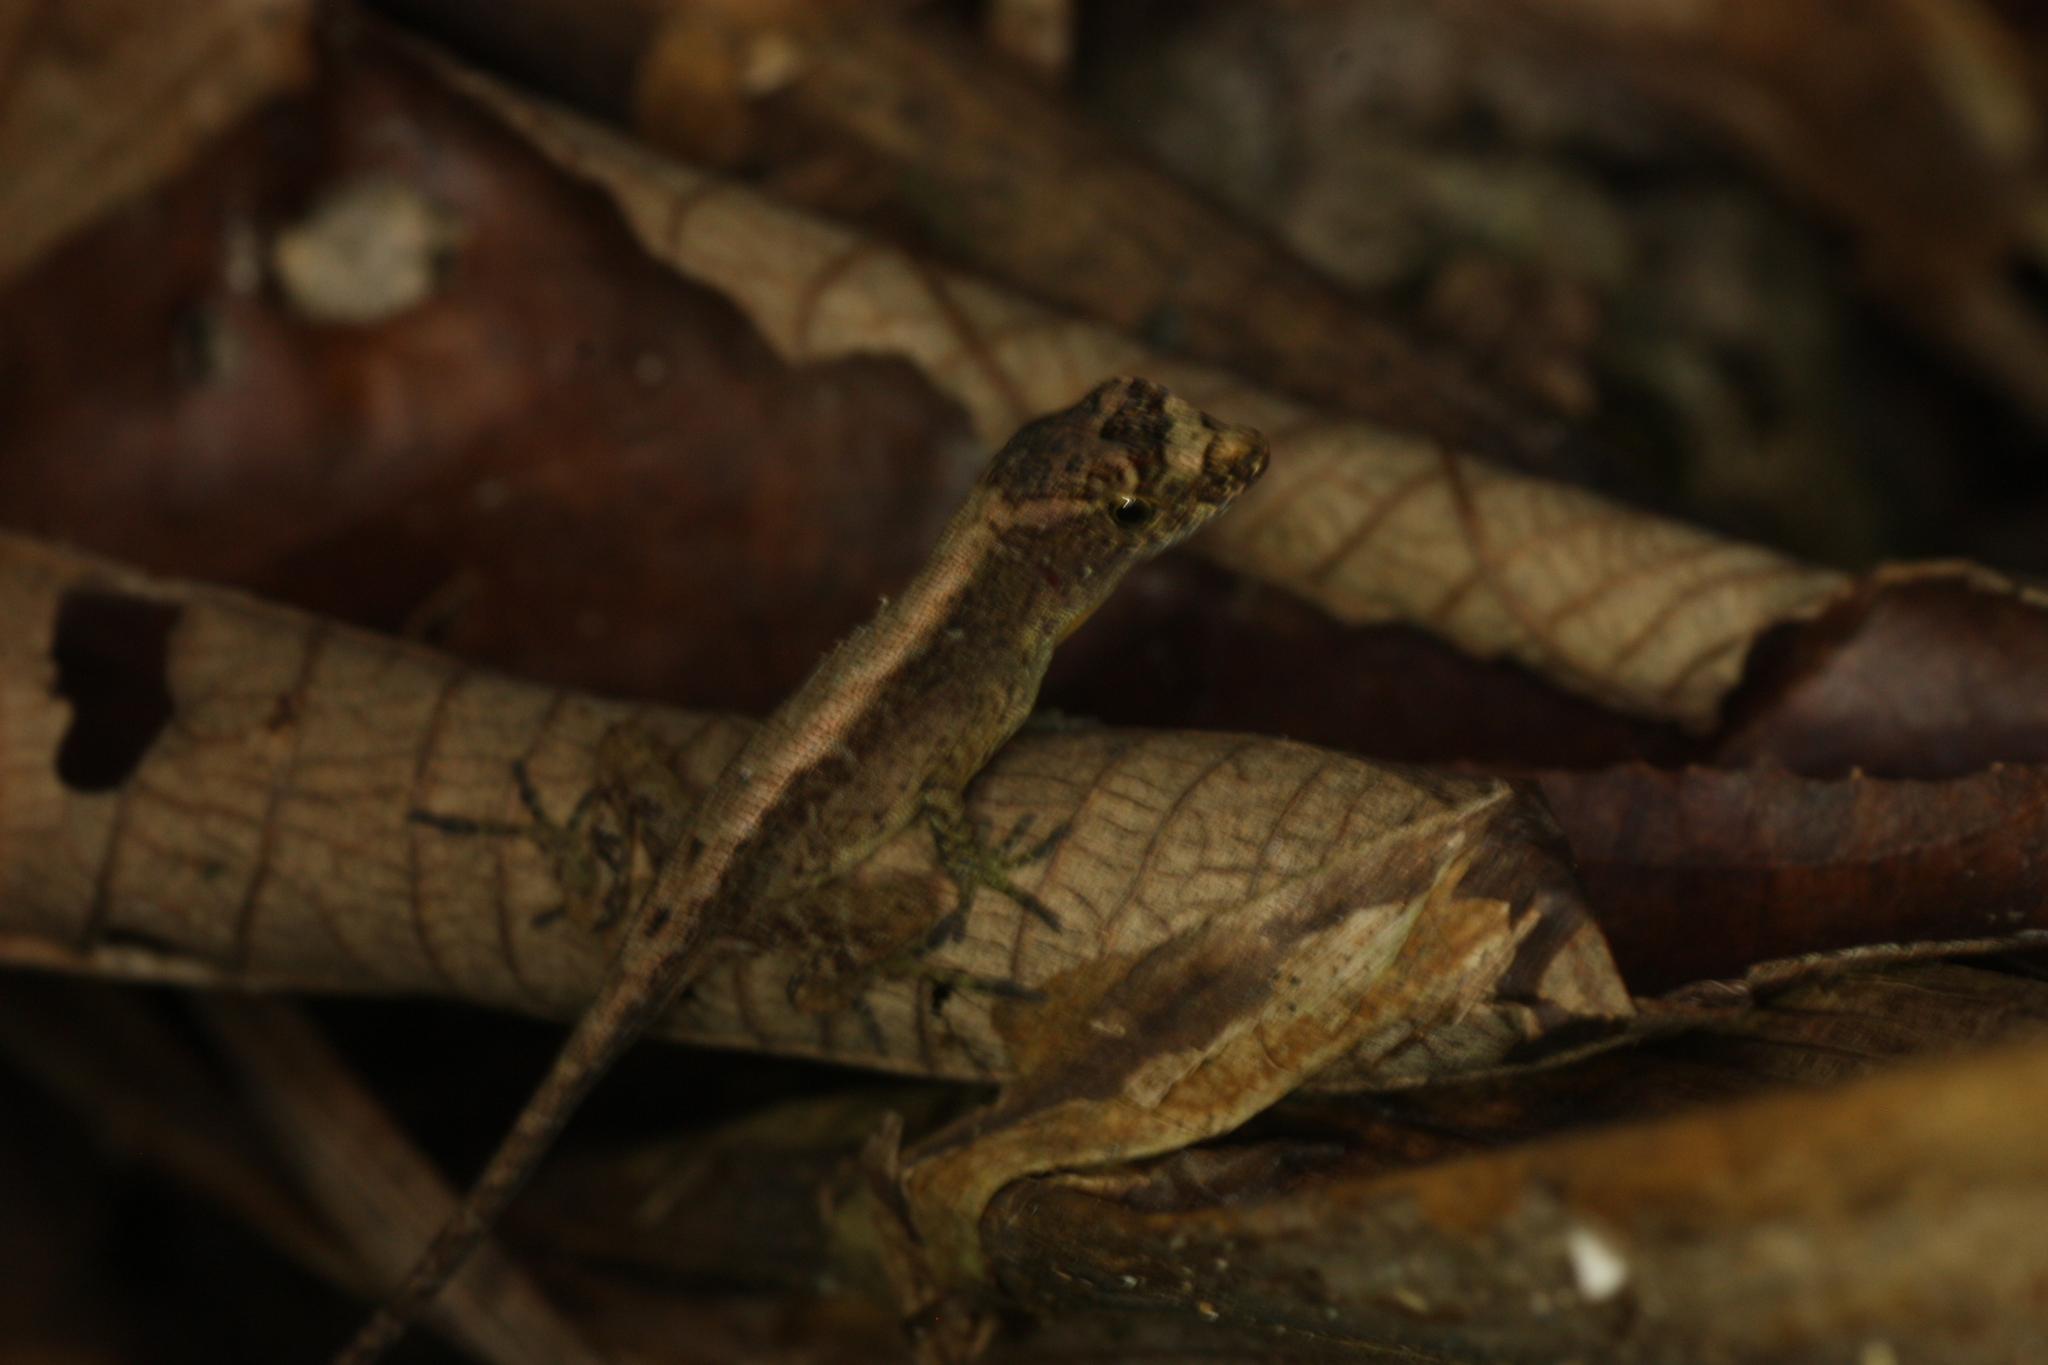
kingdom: Animalia
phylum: Chordata
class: Squamata
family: Dactyloidae
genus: Anolis
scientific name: Anolis humilis
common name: Humble anole
